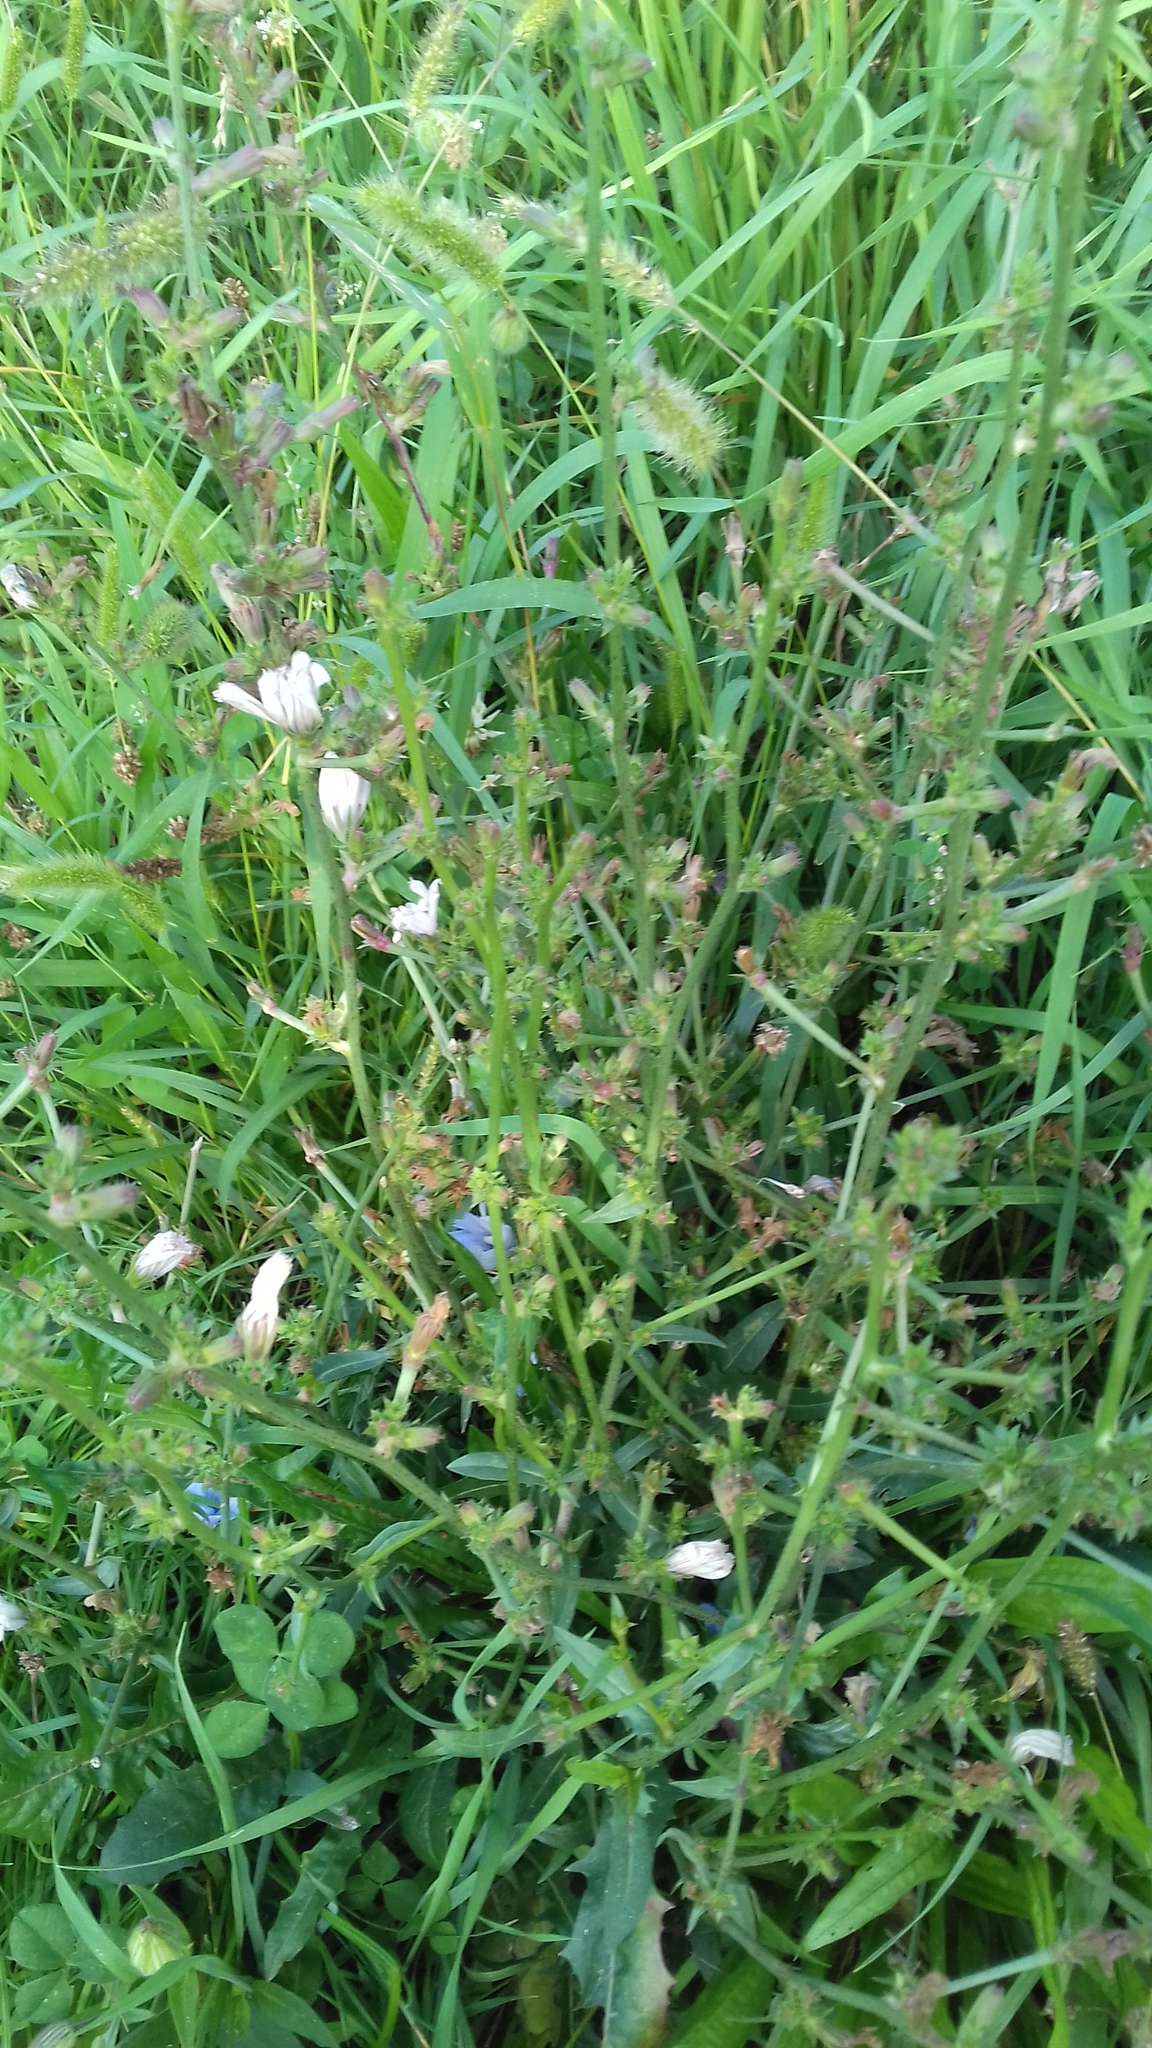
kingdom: Plantae
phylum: Tracheophyta
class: Magnoliopsida
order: Asterales
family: Asteraceae
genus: Cichorium
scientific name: Cichorium intybus
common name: Chicory
